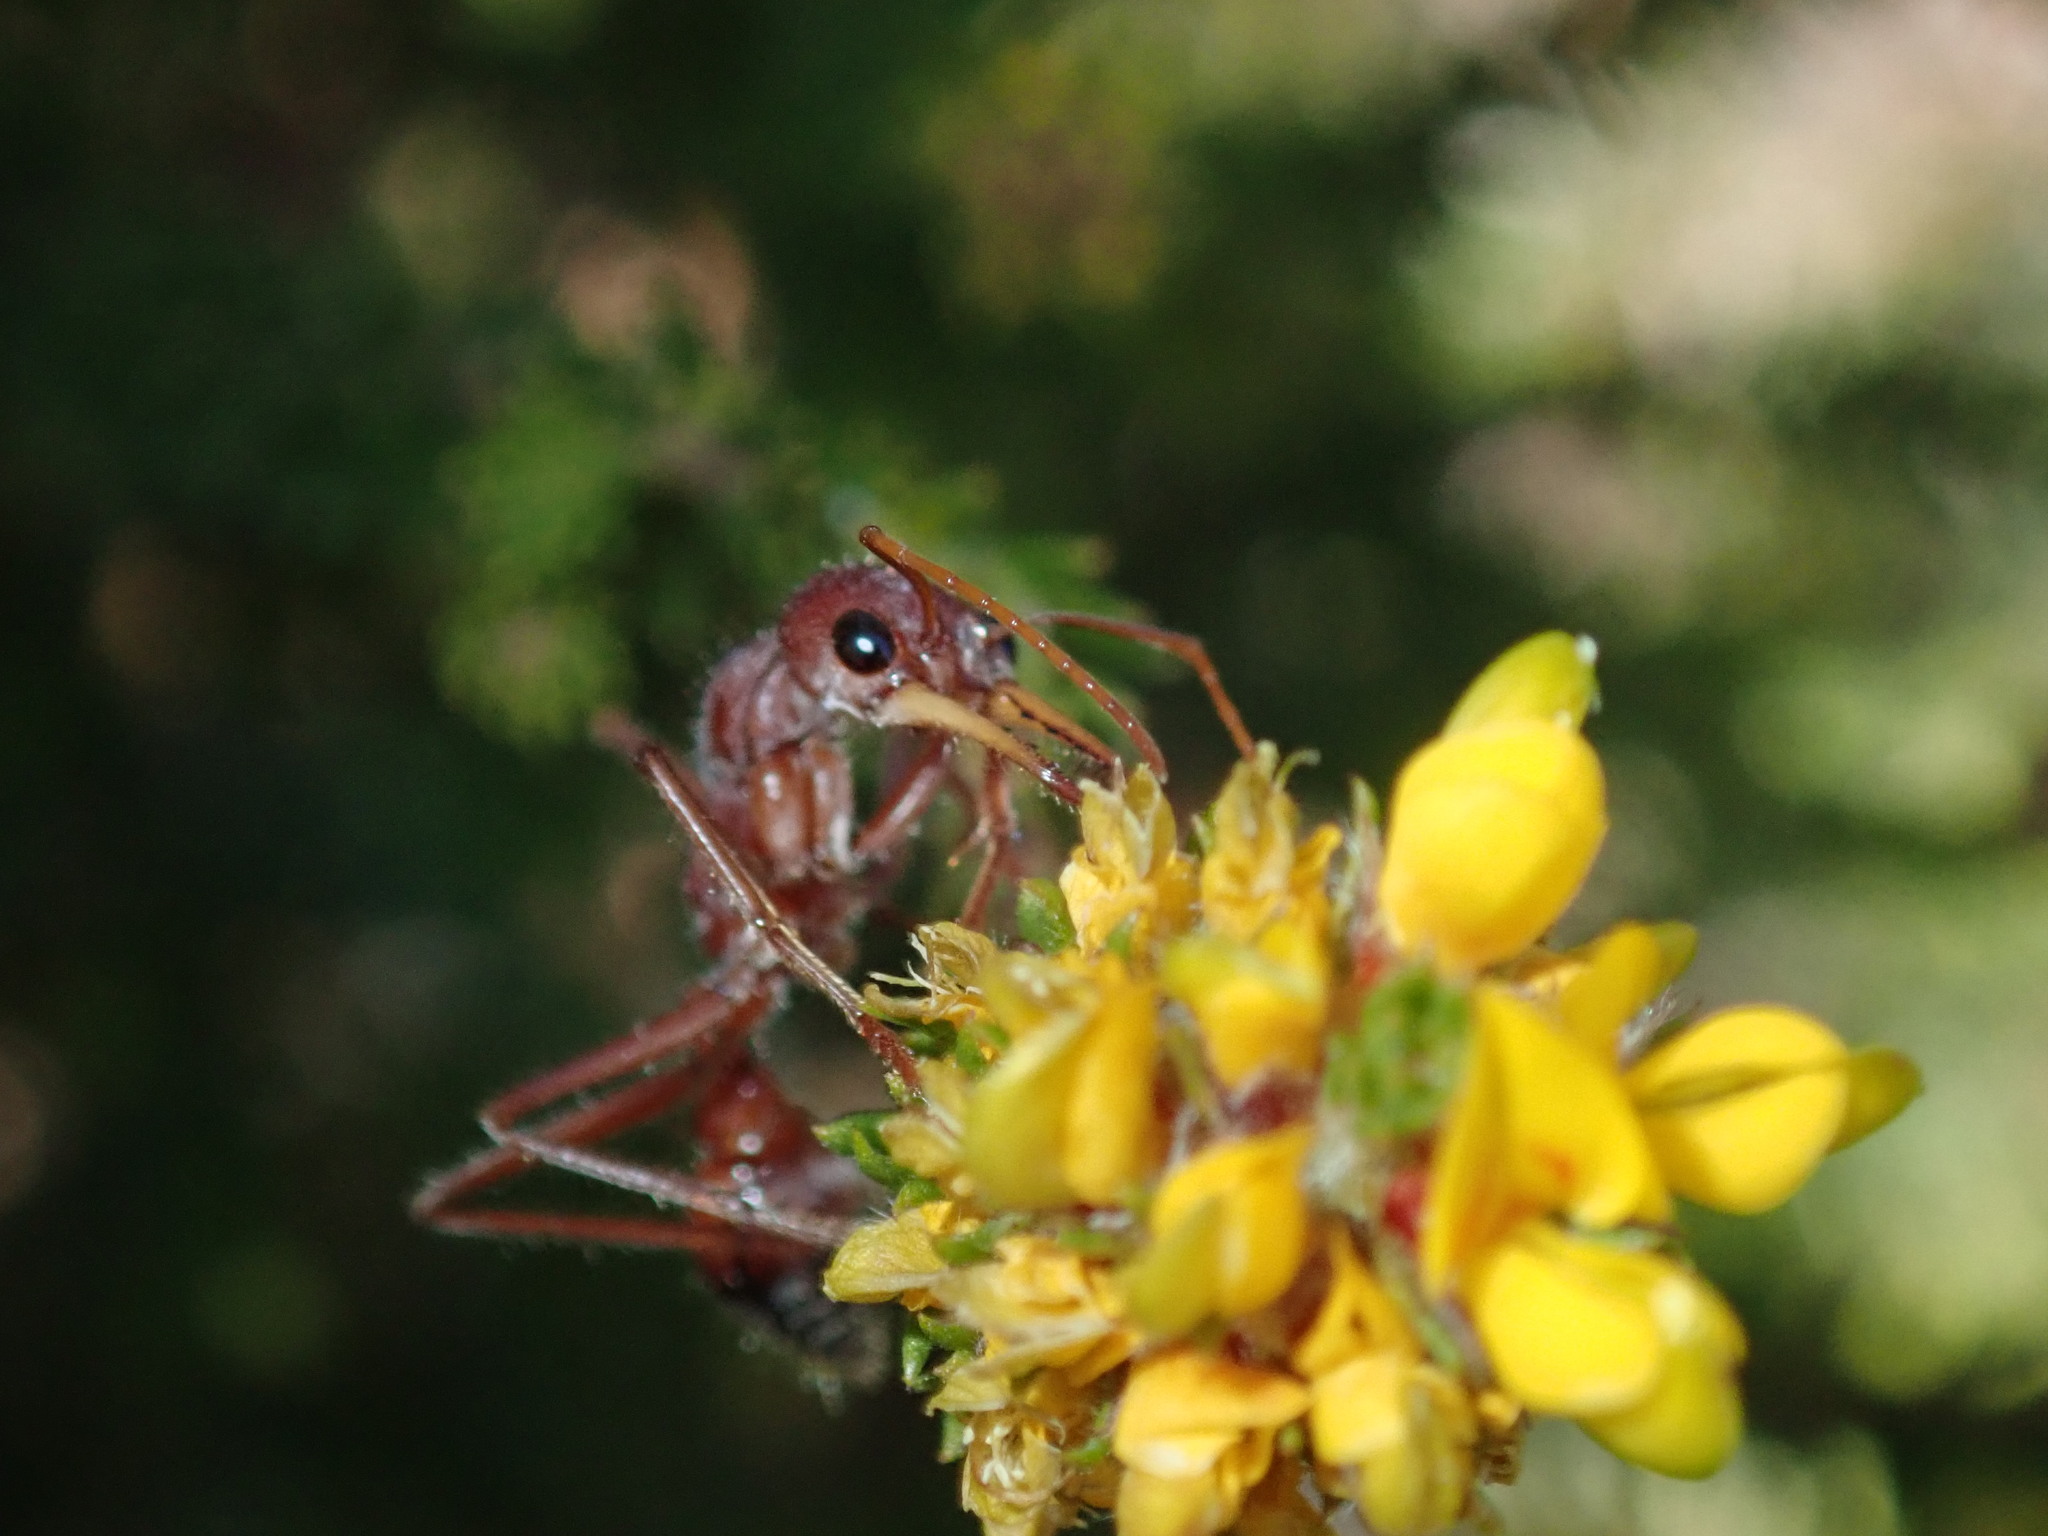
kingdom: Animalia
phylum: Arthropoda
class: Insecta
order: Hymenoptera
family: Formicidae
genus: Myrmecia
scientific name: Myrmecia gulosa
